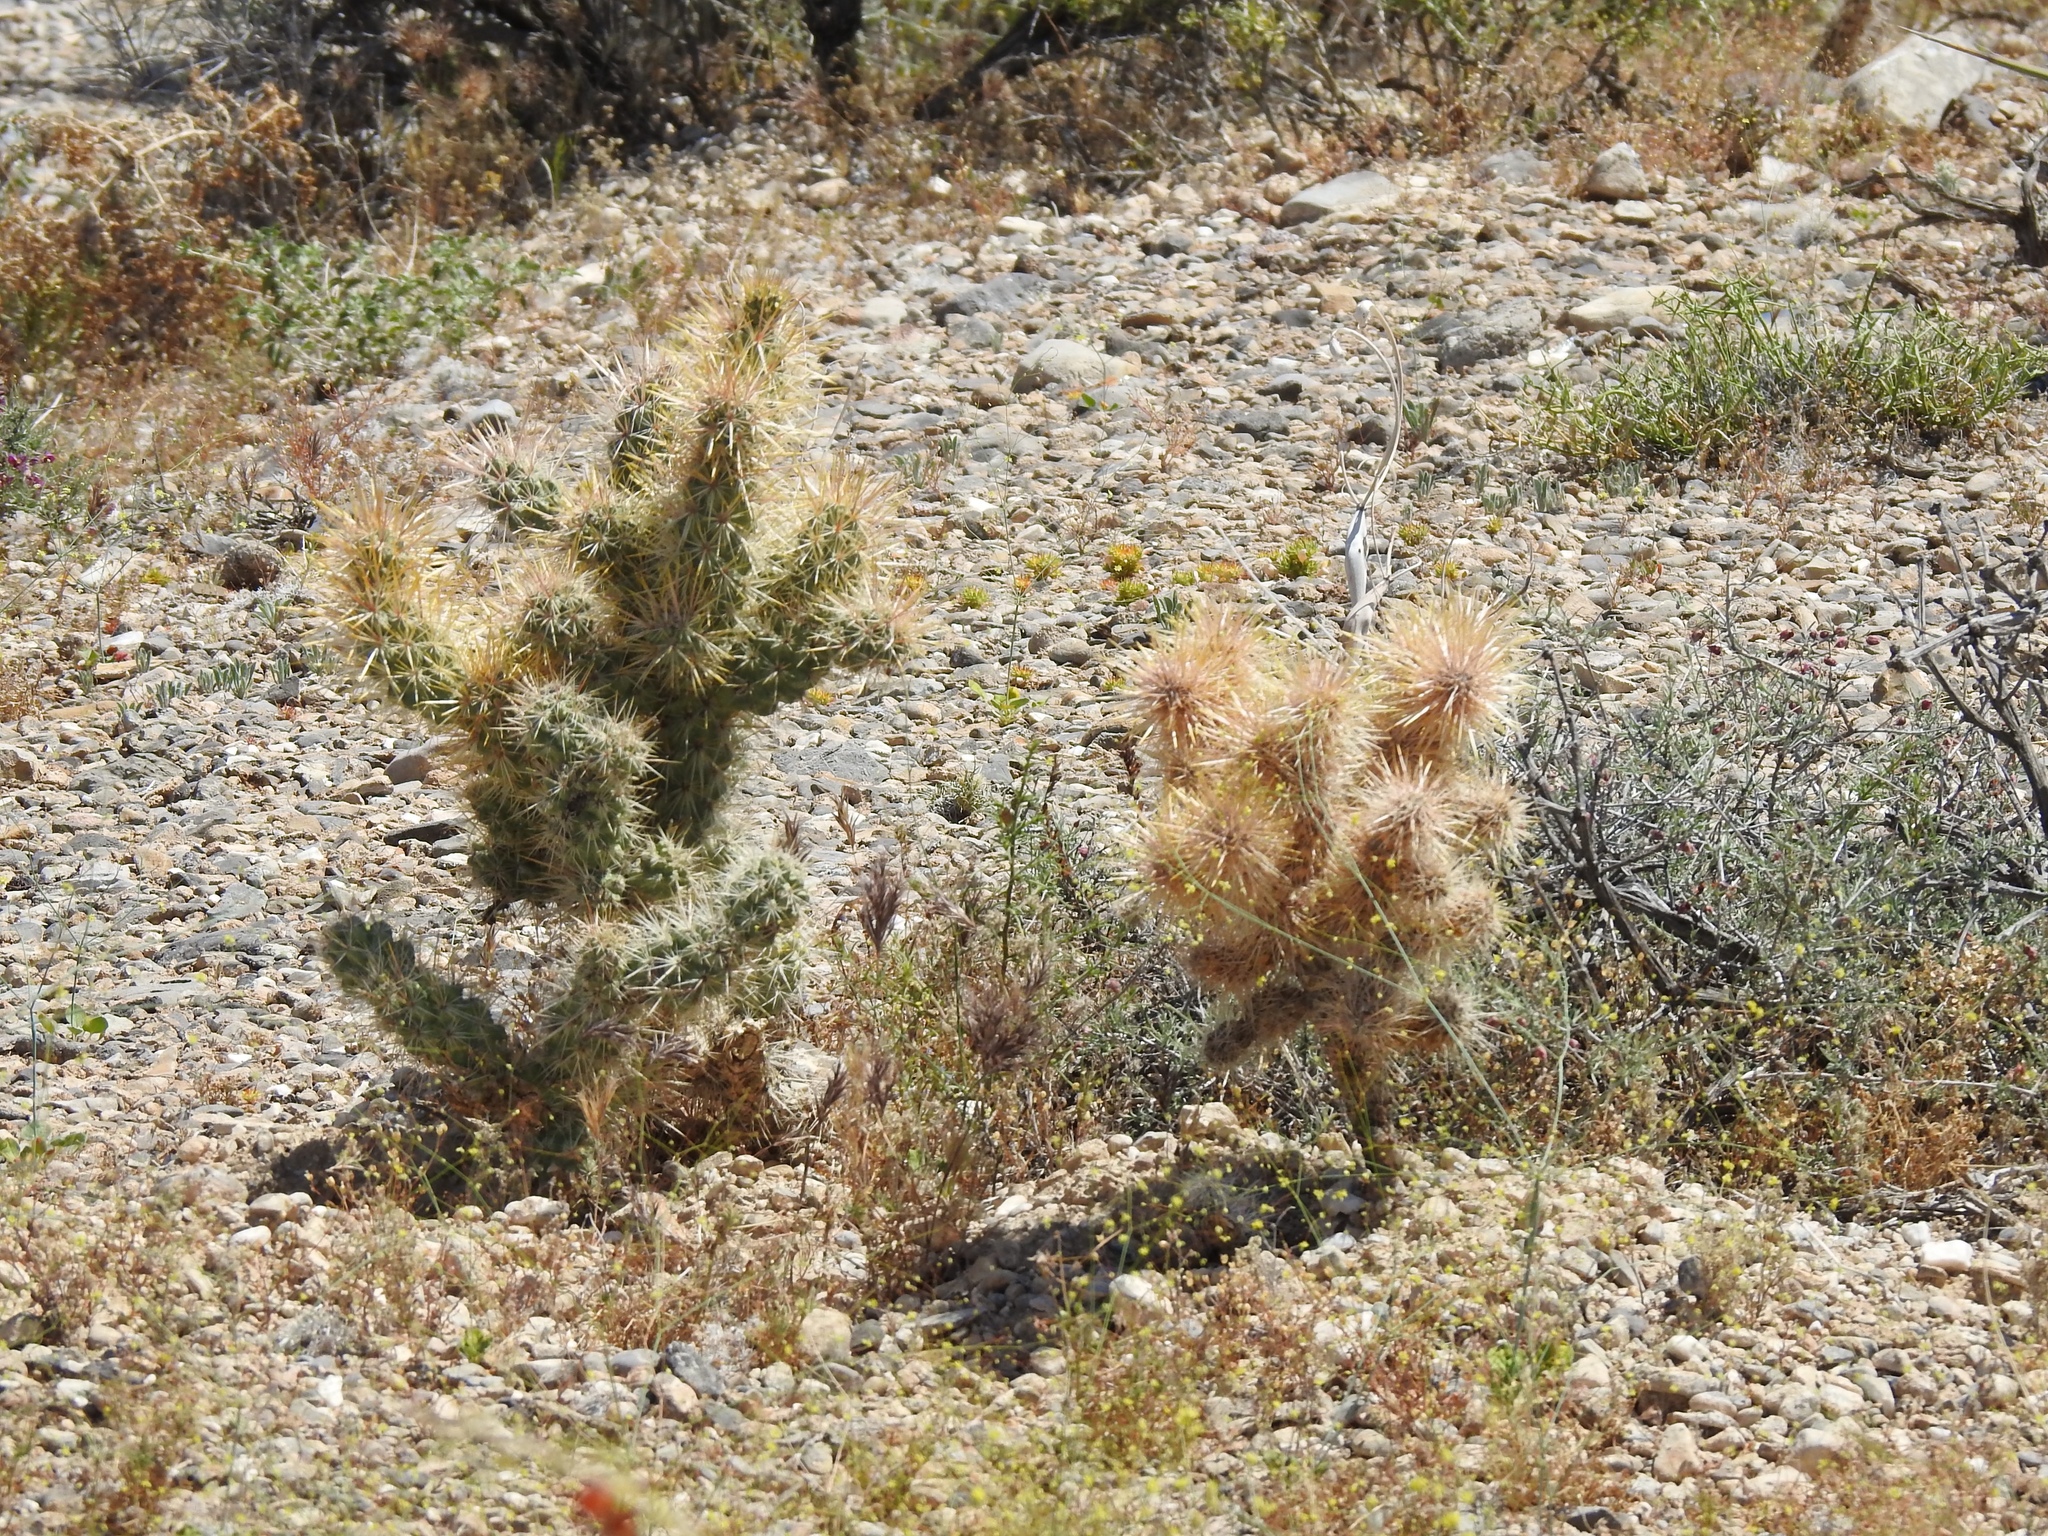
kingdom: Plantae
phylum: Tracheophyta
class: Magnoliopsida
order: Caryophyllales
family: Cactaceae
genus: Cylindropuntia
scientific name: Cylindropuntia echinocarpa
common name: Ground cholla
